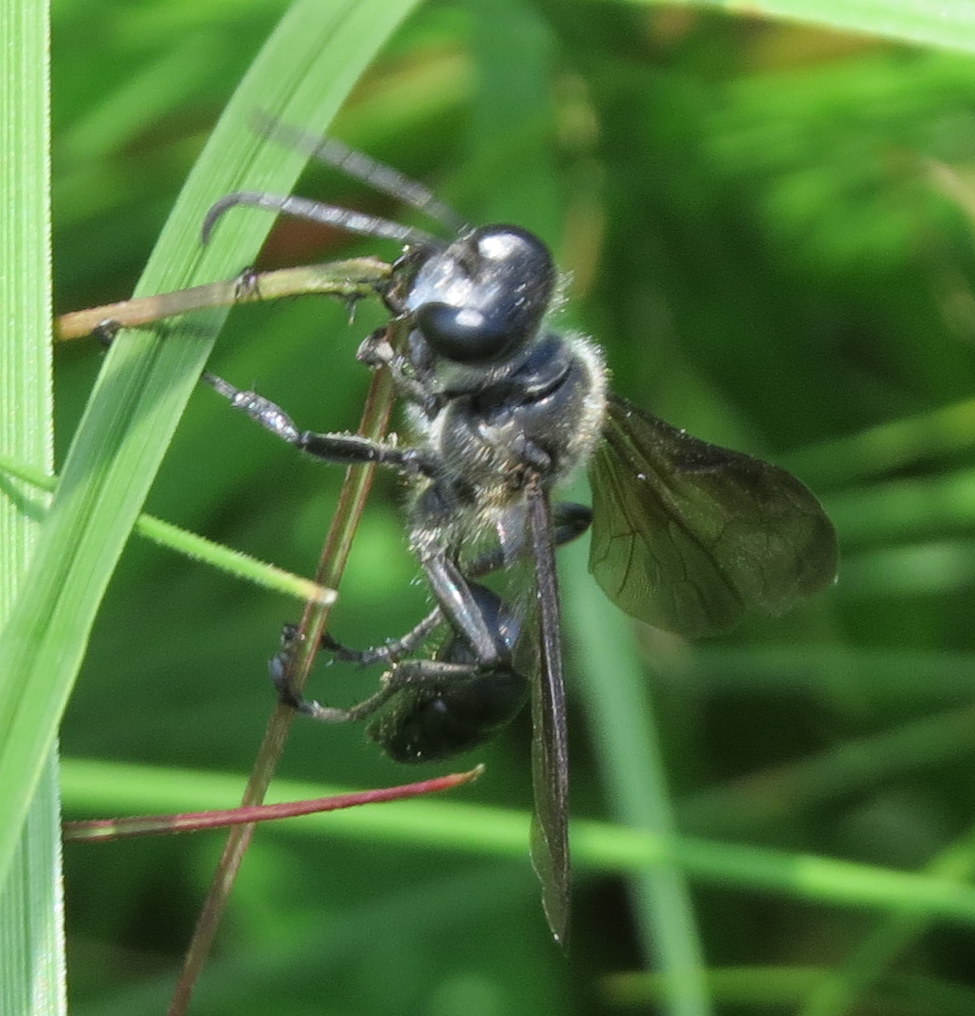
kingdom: Animalia
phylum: Arthropoda
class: Insecta
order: Hymenoptera
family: Sphecidae
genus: Isodontia
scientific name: Isodontia mexicana
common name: Mud dauber
